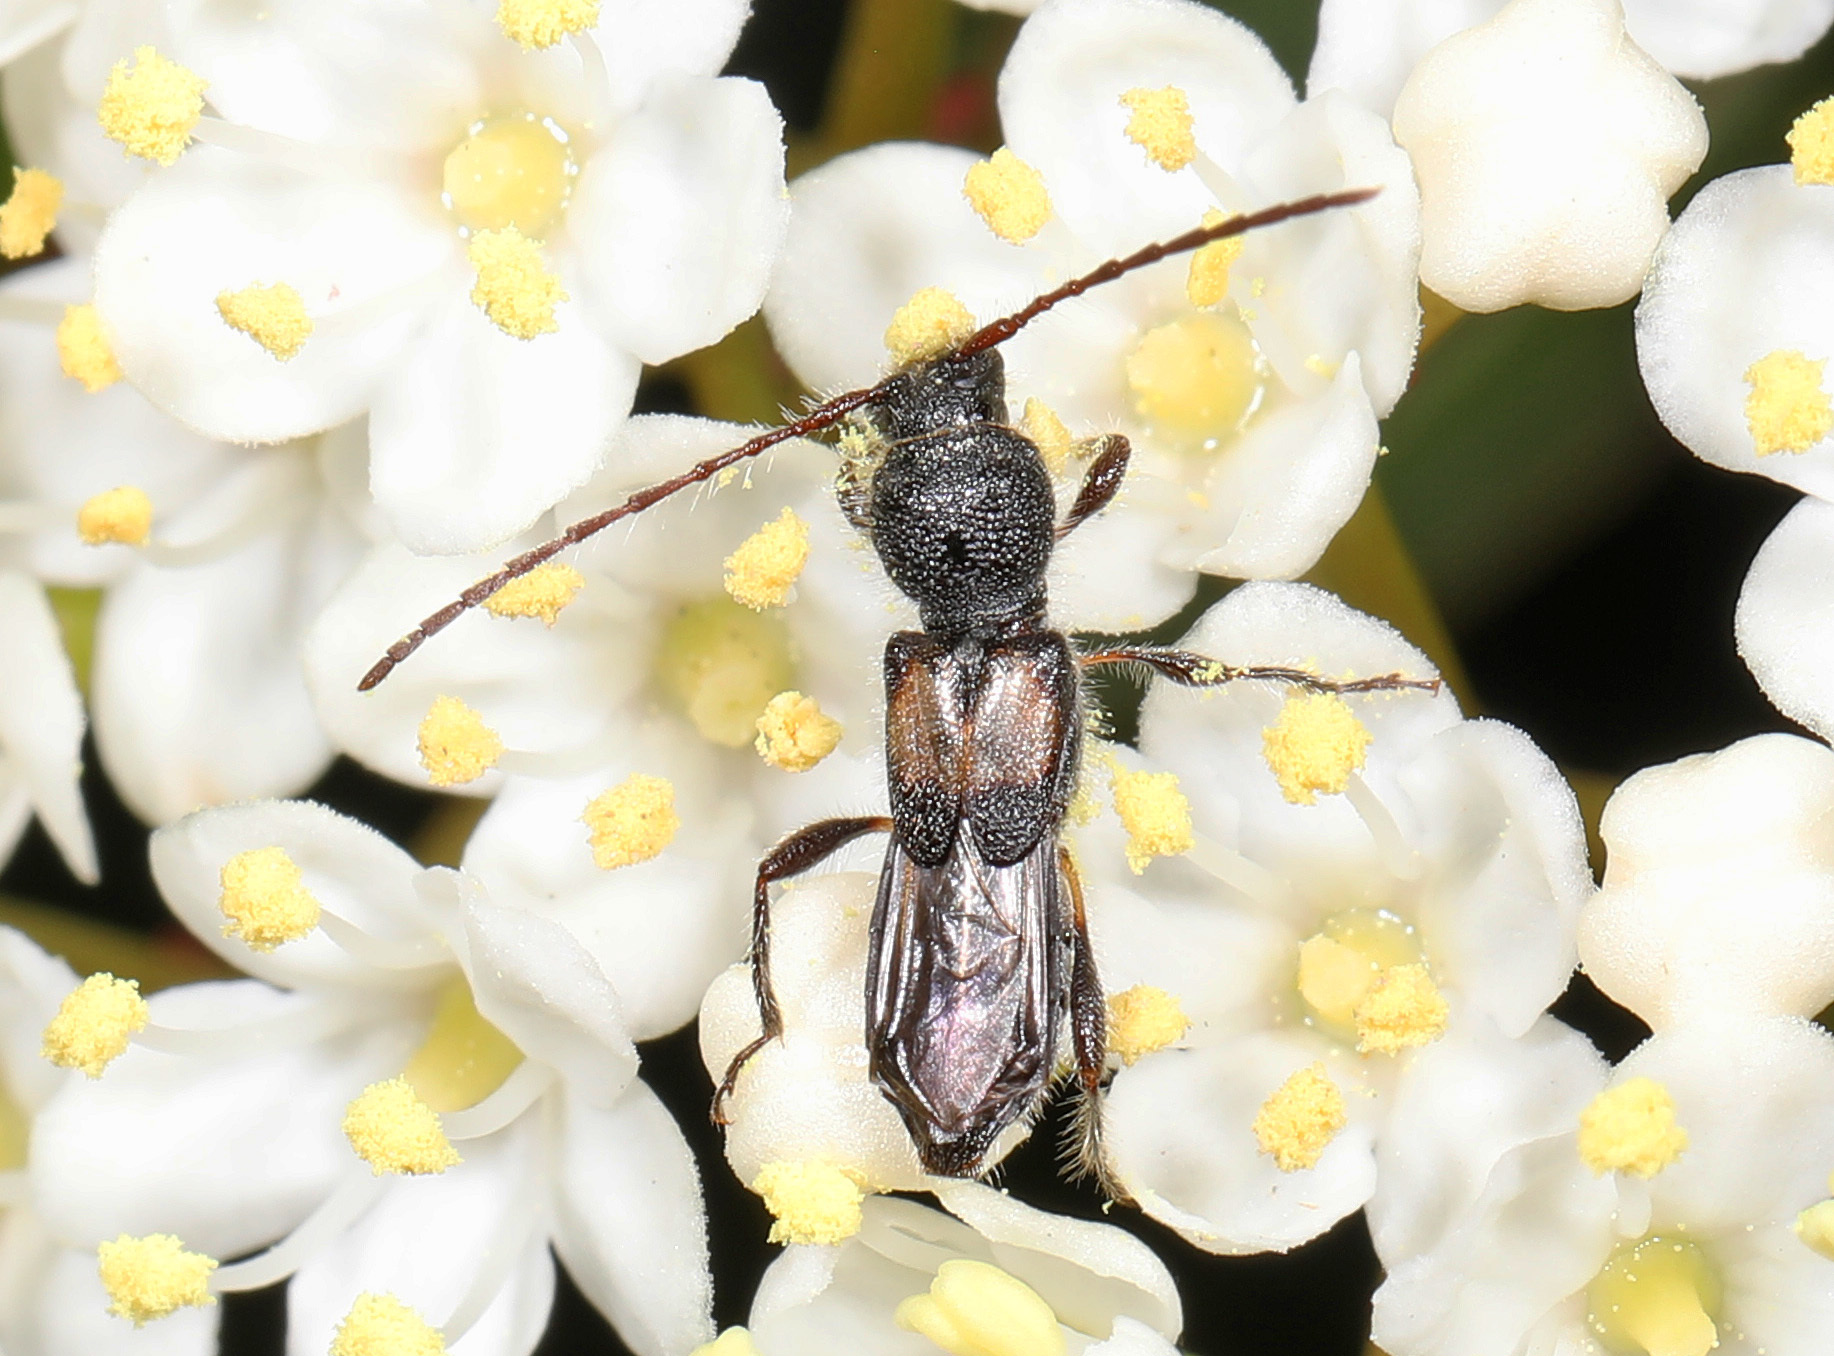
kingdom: Animalia
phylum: Arthropoda
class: Insecta
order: Coleoptera
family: Cerambycidae
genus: Molorchus
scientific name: Molorchus bimaculatus
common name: Bimaculate longhorn beetle
